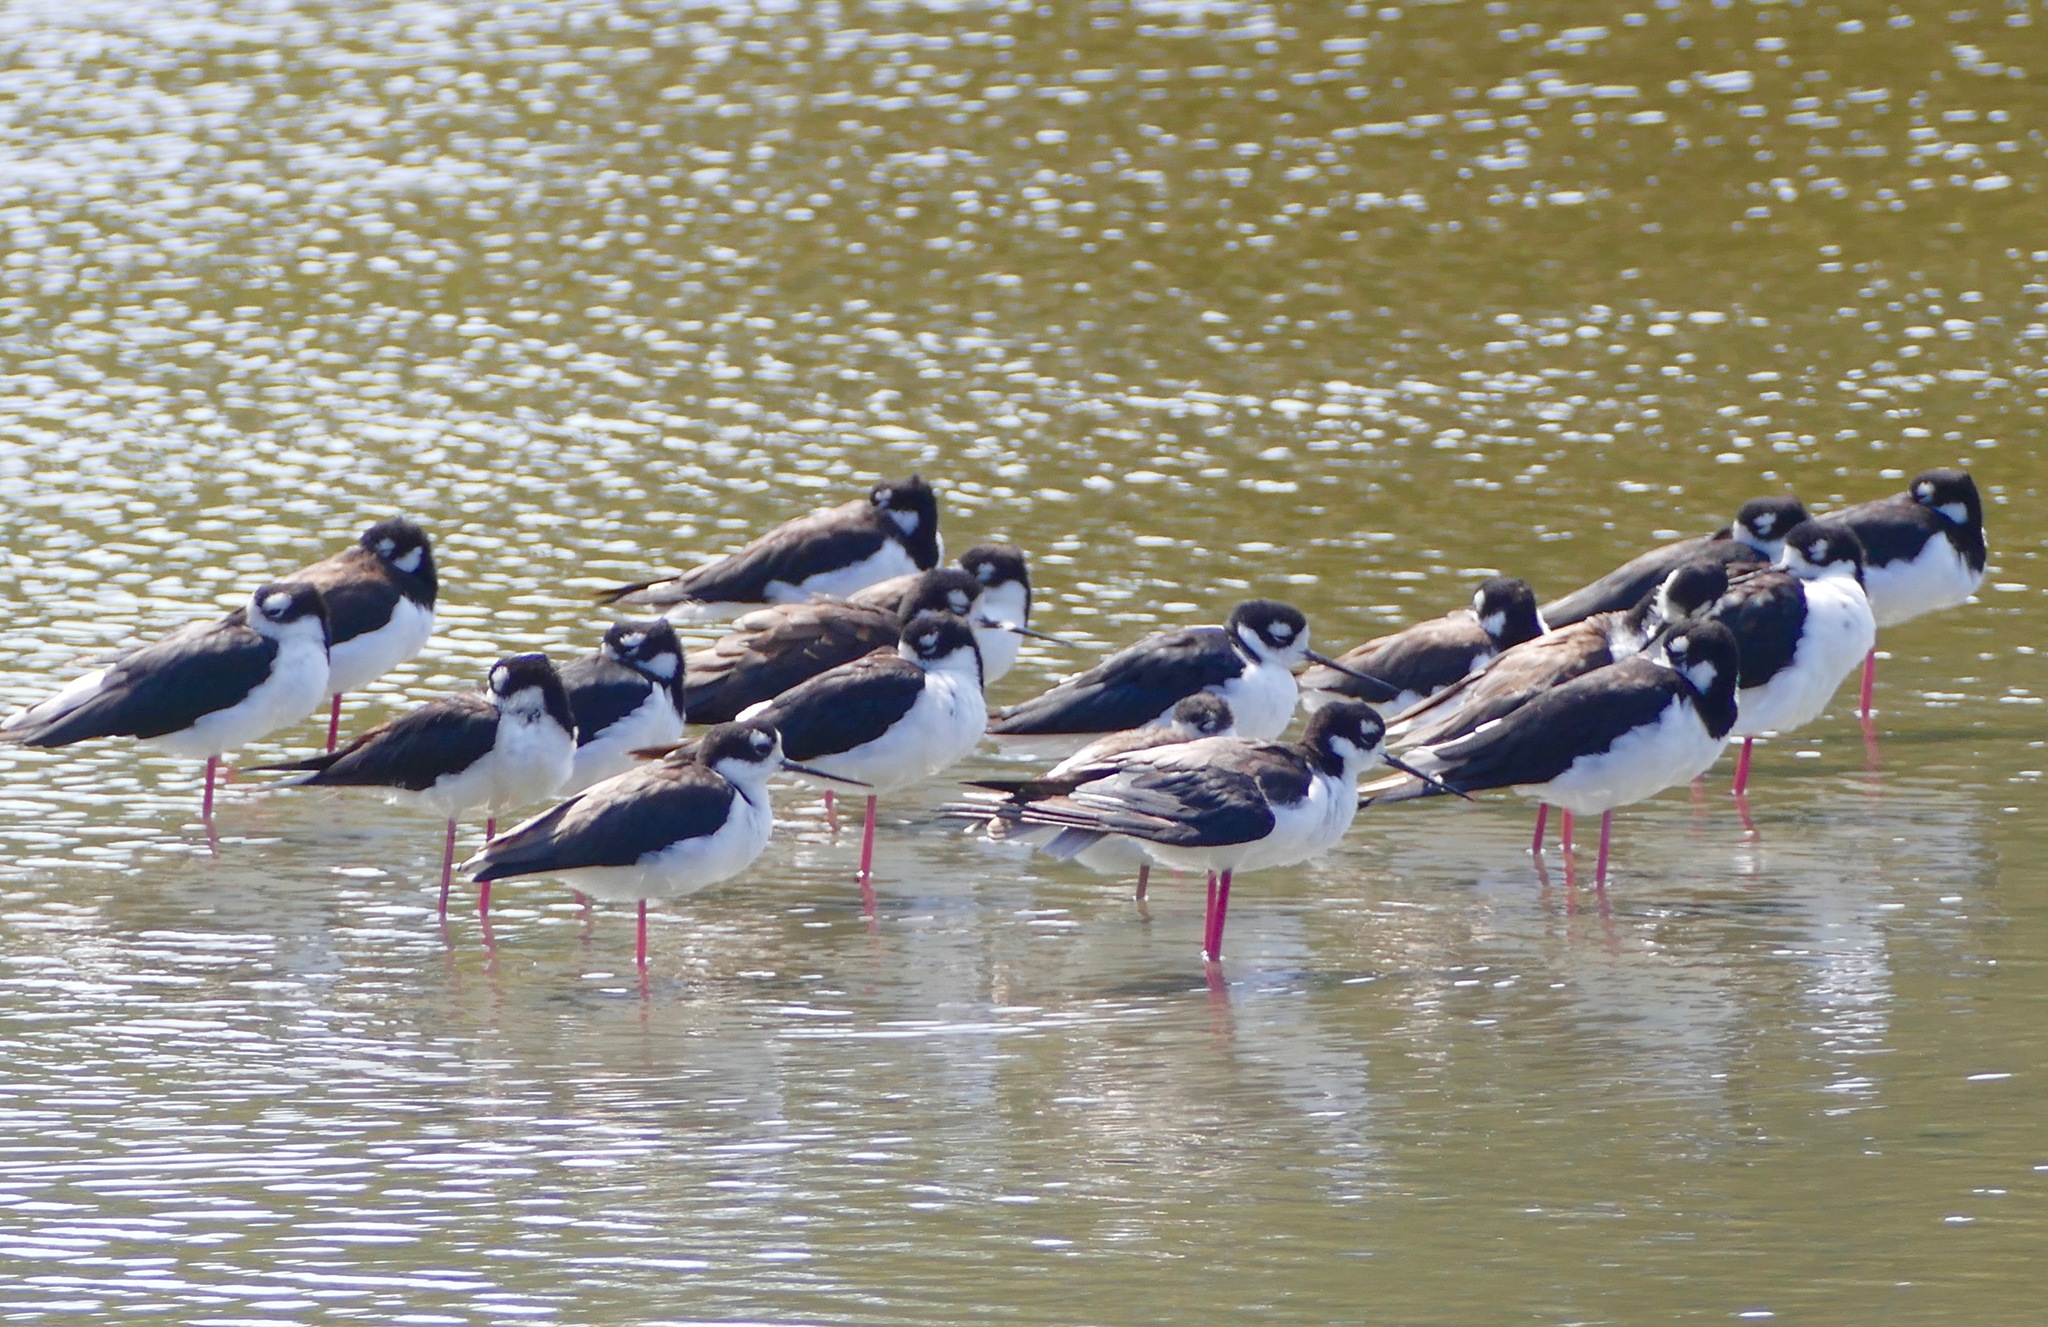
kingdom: Animalia
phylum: Chordata
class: Aves
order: Charadriiformes
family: Recurvirostridae
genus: Himantopus
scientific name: Himantopus mexicanus
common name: Black-necked stilt
